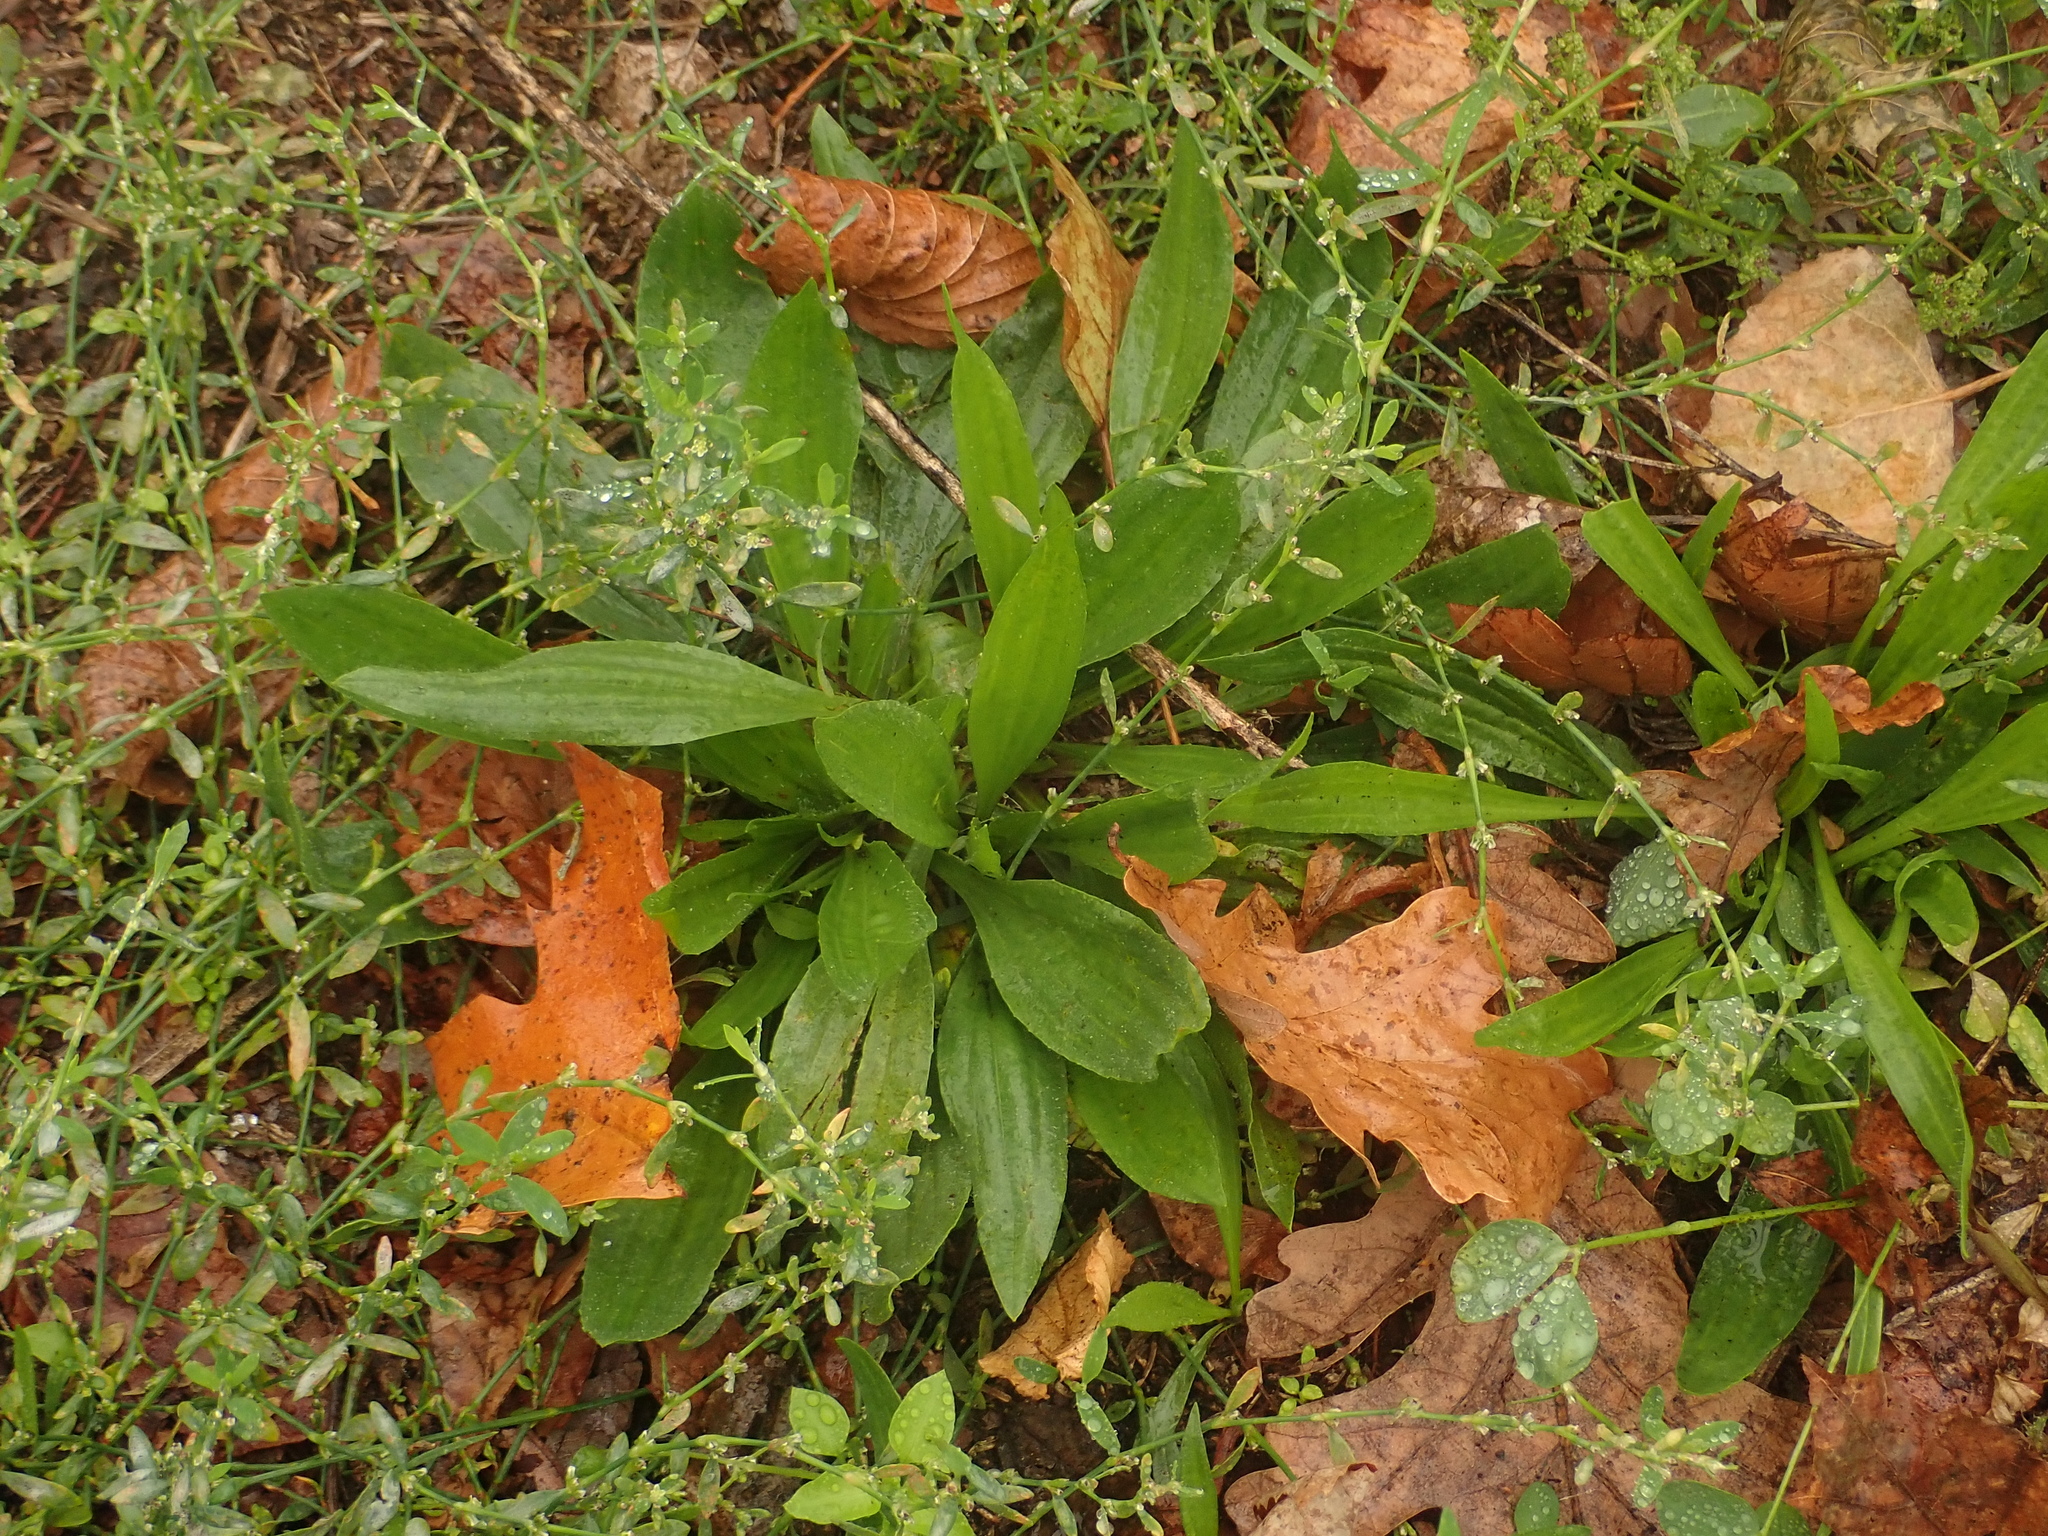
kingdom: Plantae
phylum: Tracheophyta
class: Magnoliopsida
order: Lamiales
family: Plantaginaceae
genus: Plantago
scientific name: Plantago lanceolata
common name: Ribwort plantain
